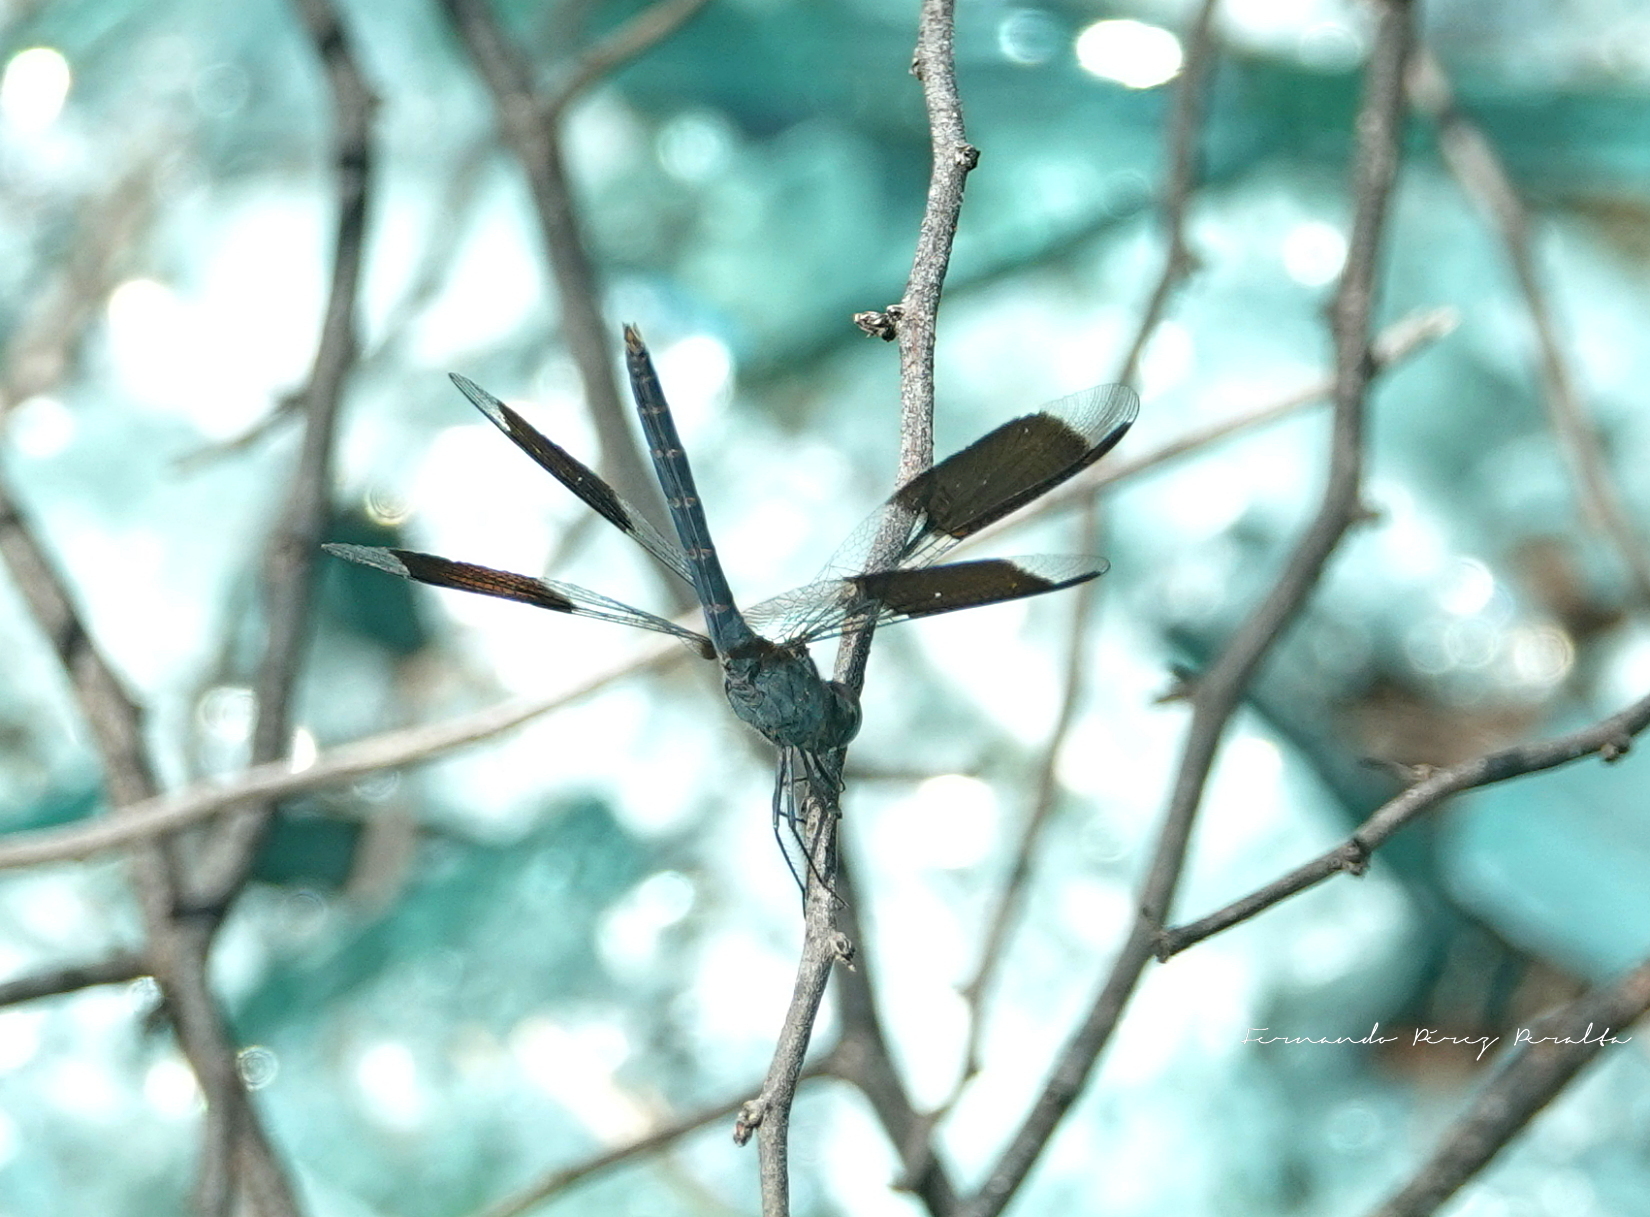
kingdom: Animalia
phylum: Arthropoda
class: Insecta
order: Odonata
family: Libellulidae
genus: Erythrodiplax
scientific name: Erythrodiplax umbrata
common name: Band-winged dragonlet
